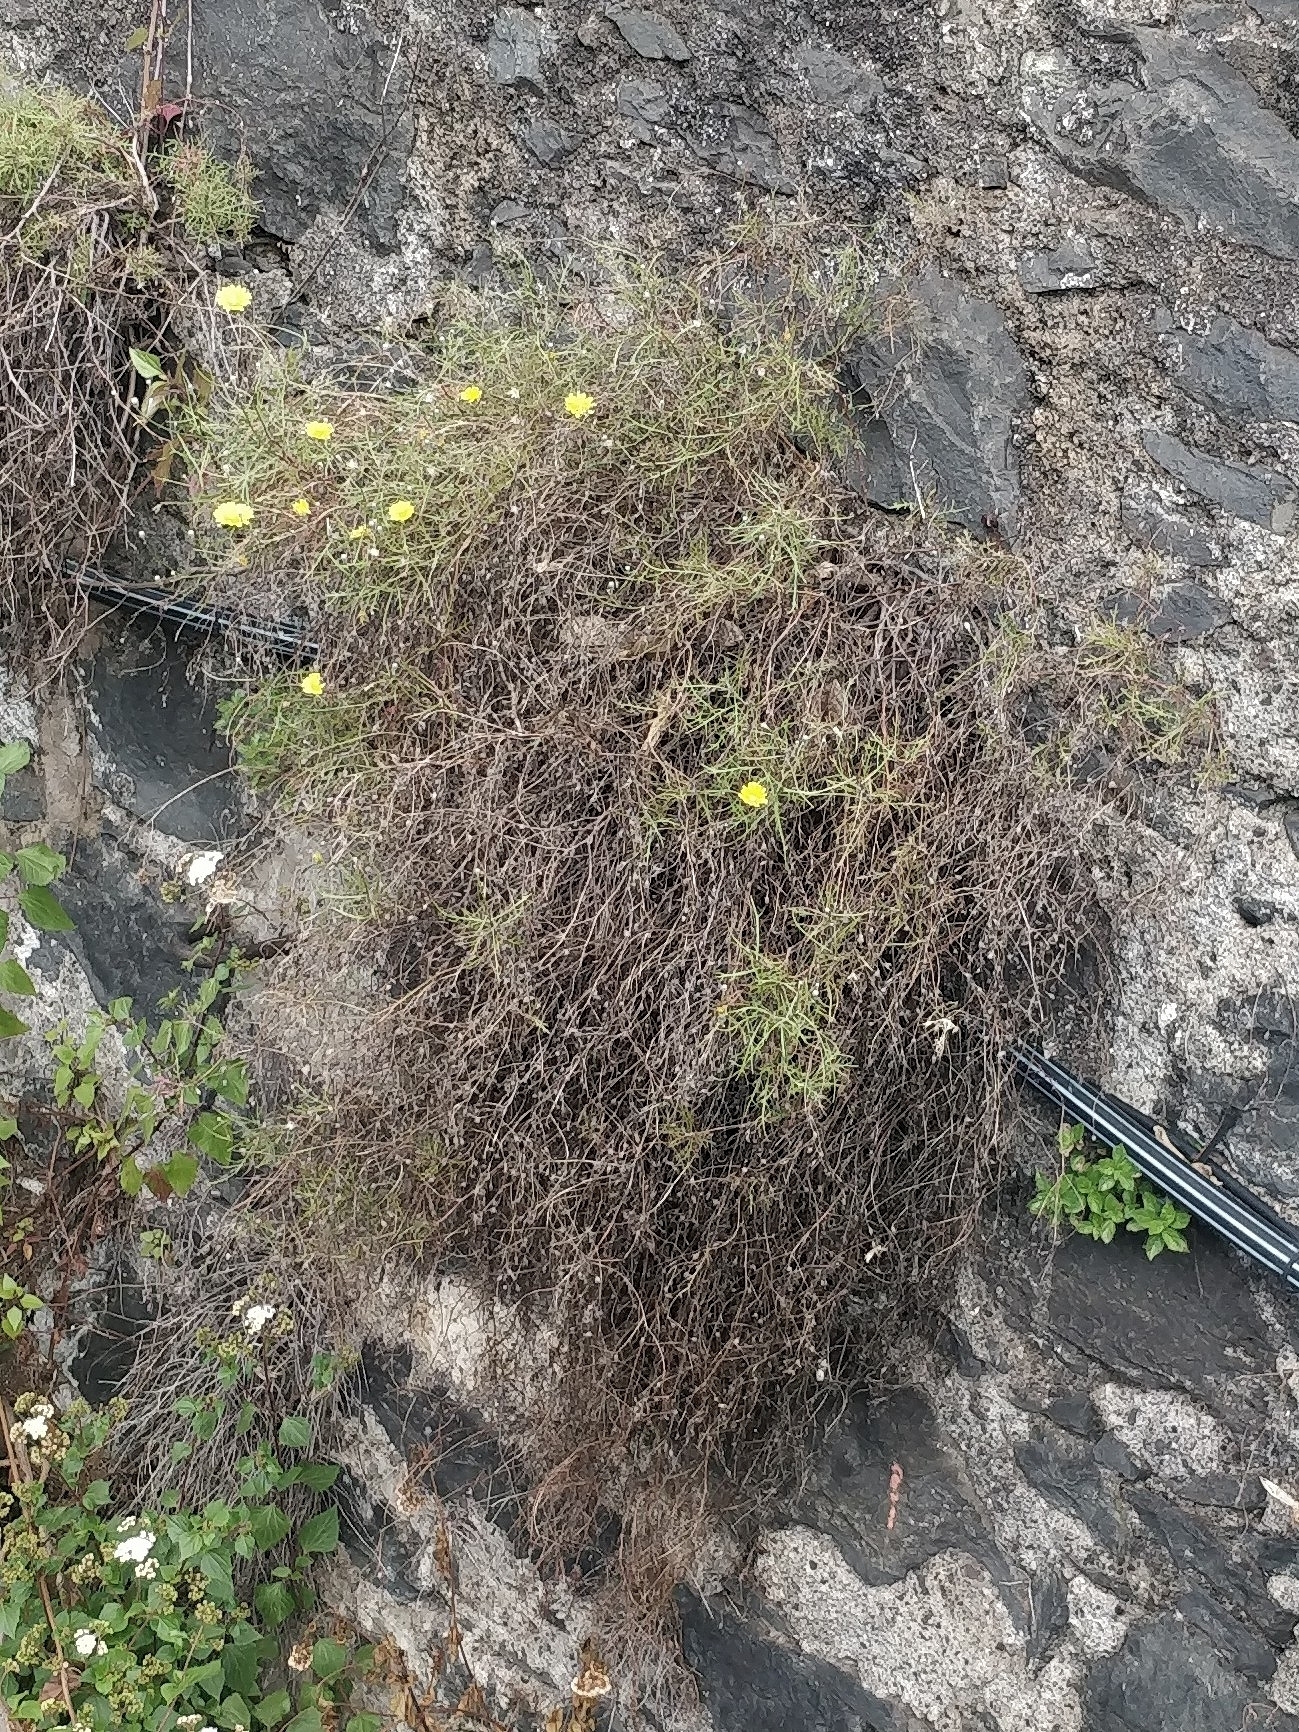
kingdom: Plantae
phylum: Tracheophyta
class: Magnoliopsida
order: Asterales
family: Asteraceae
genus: Tolpis
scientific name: Tolpis succulenta
